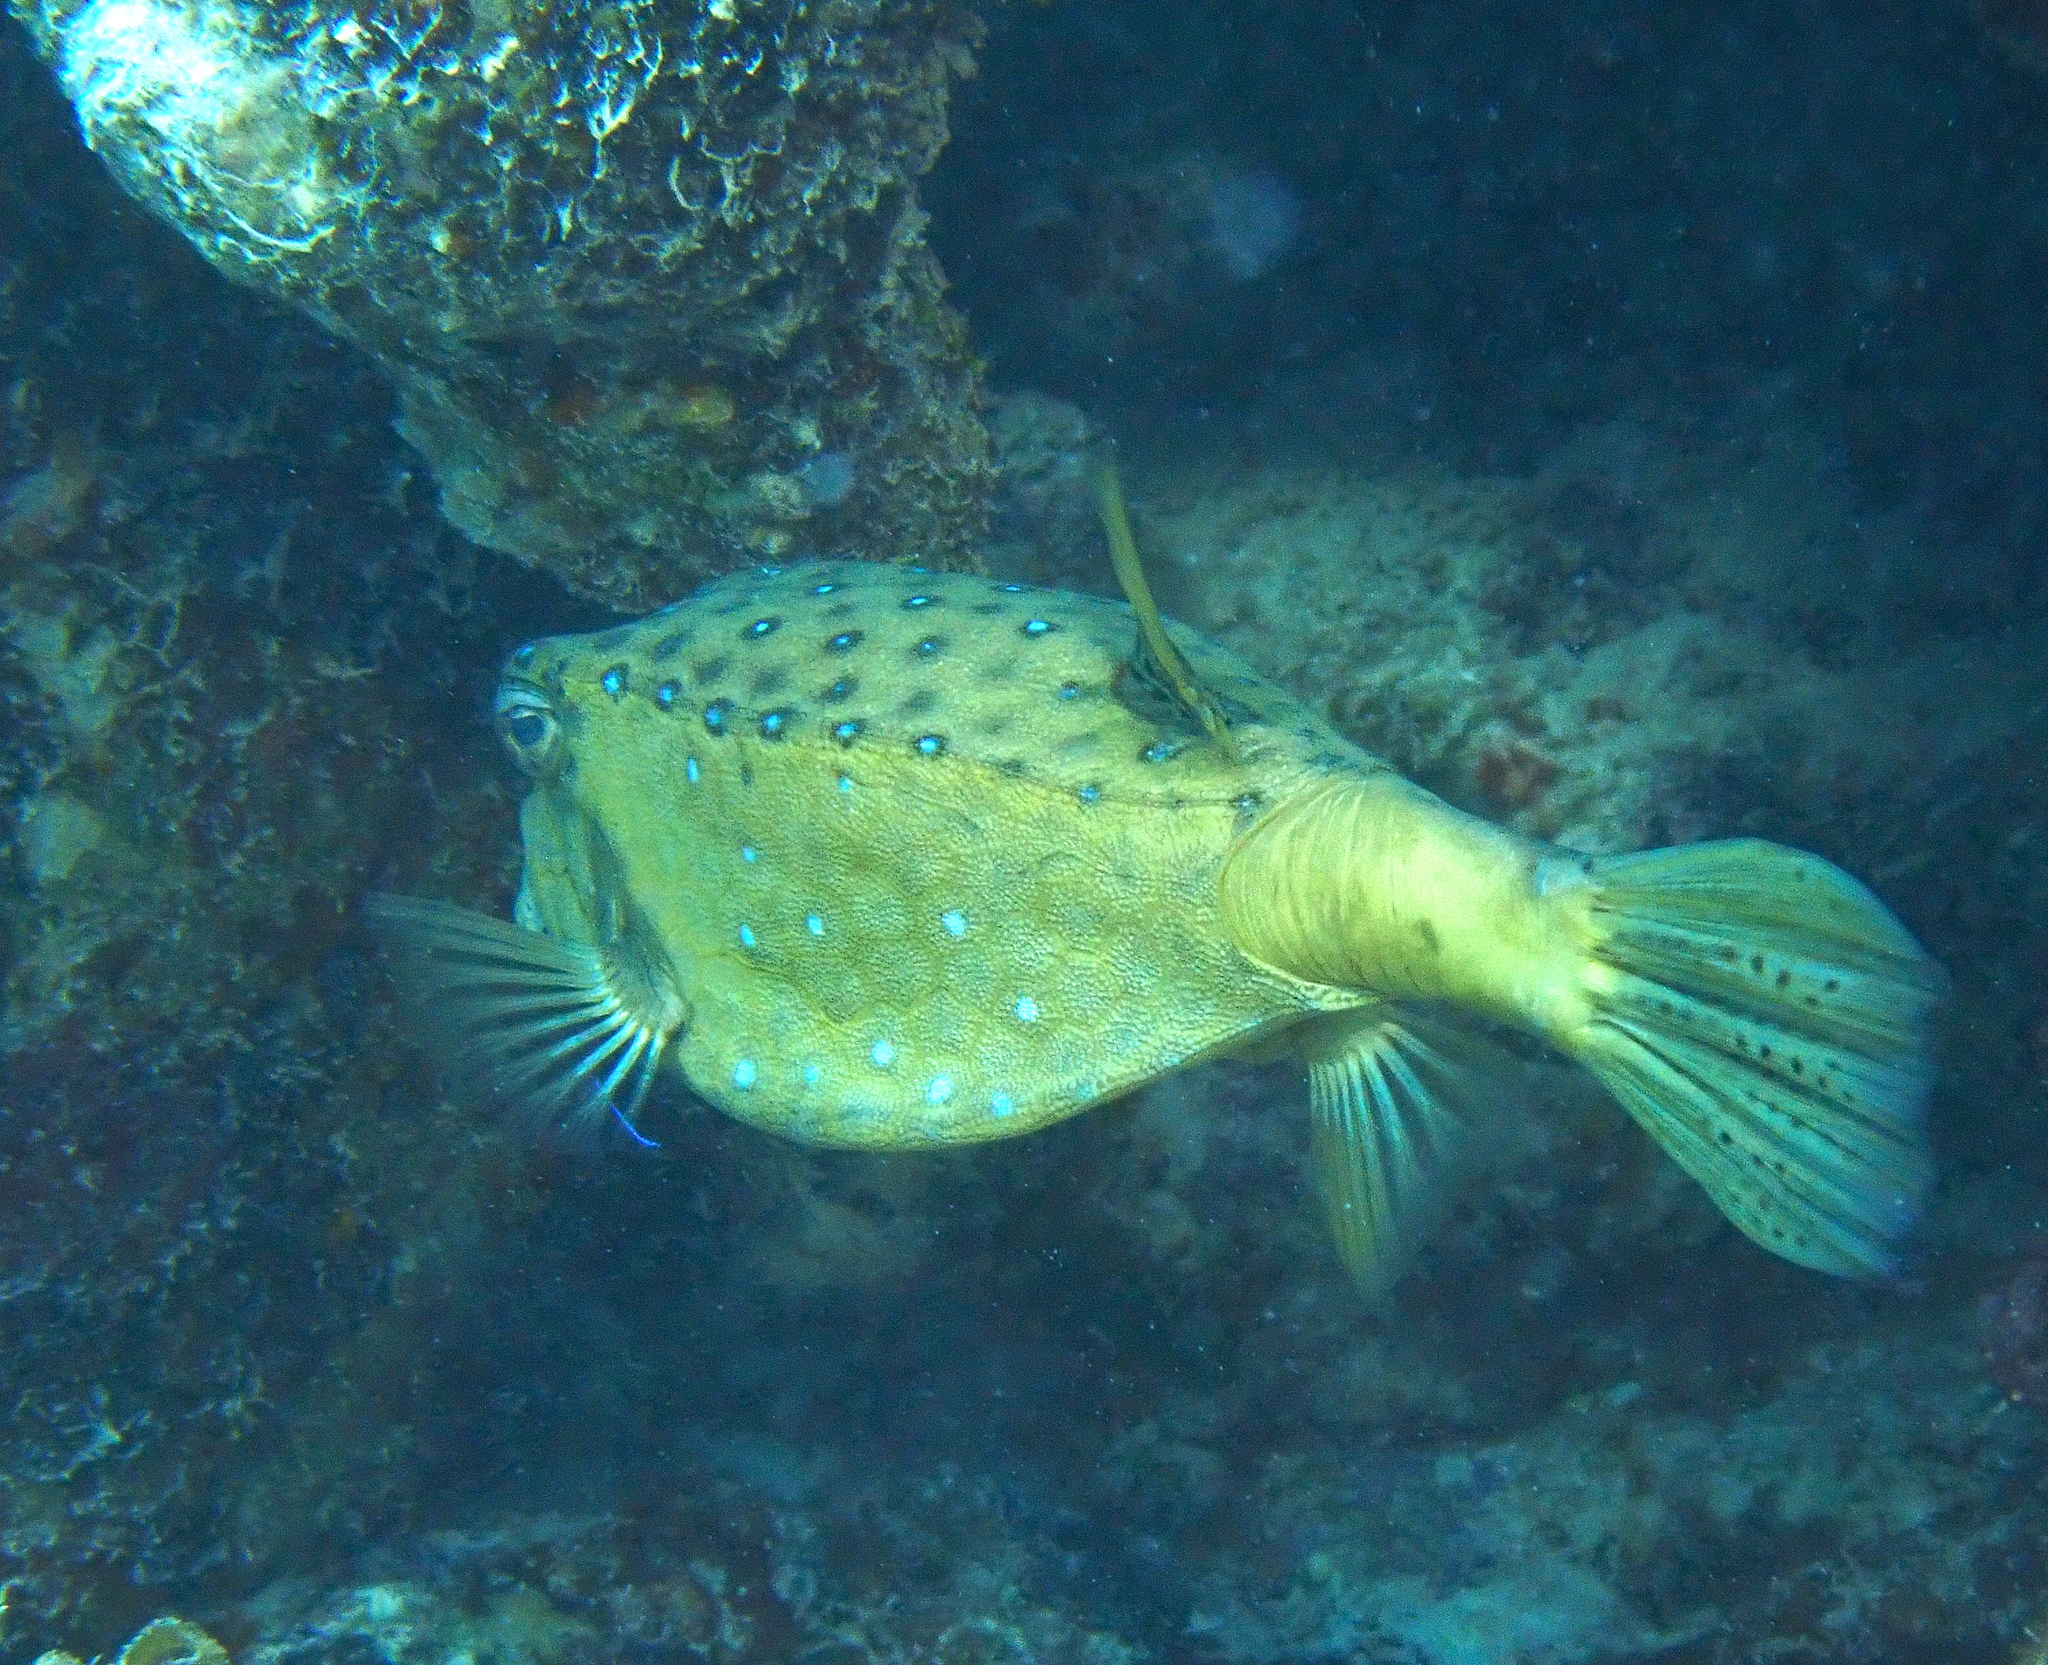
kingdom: Animalia
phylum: Chordata
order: Tetraodontiformes
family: Ostraciidae
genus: Ostracion
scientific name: Ostracion cubicus
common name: Cube trunkfish
